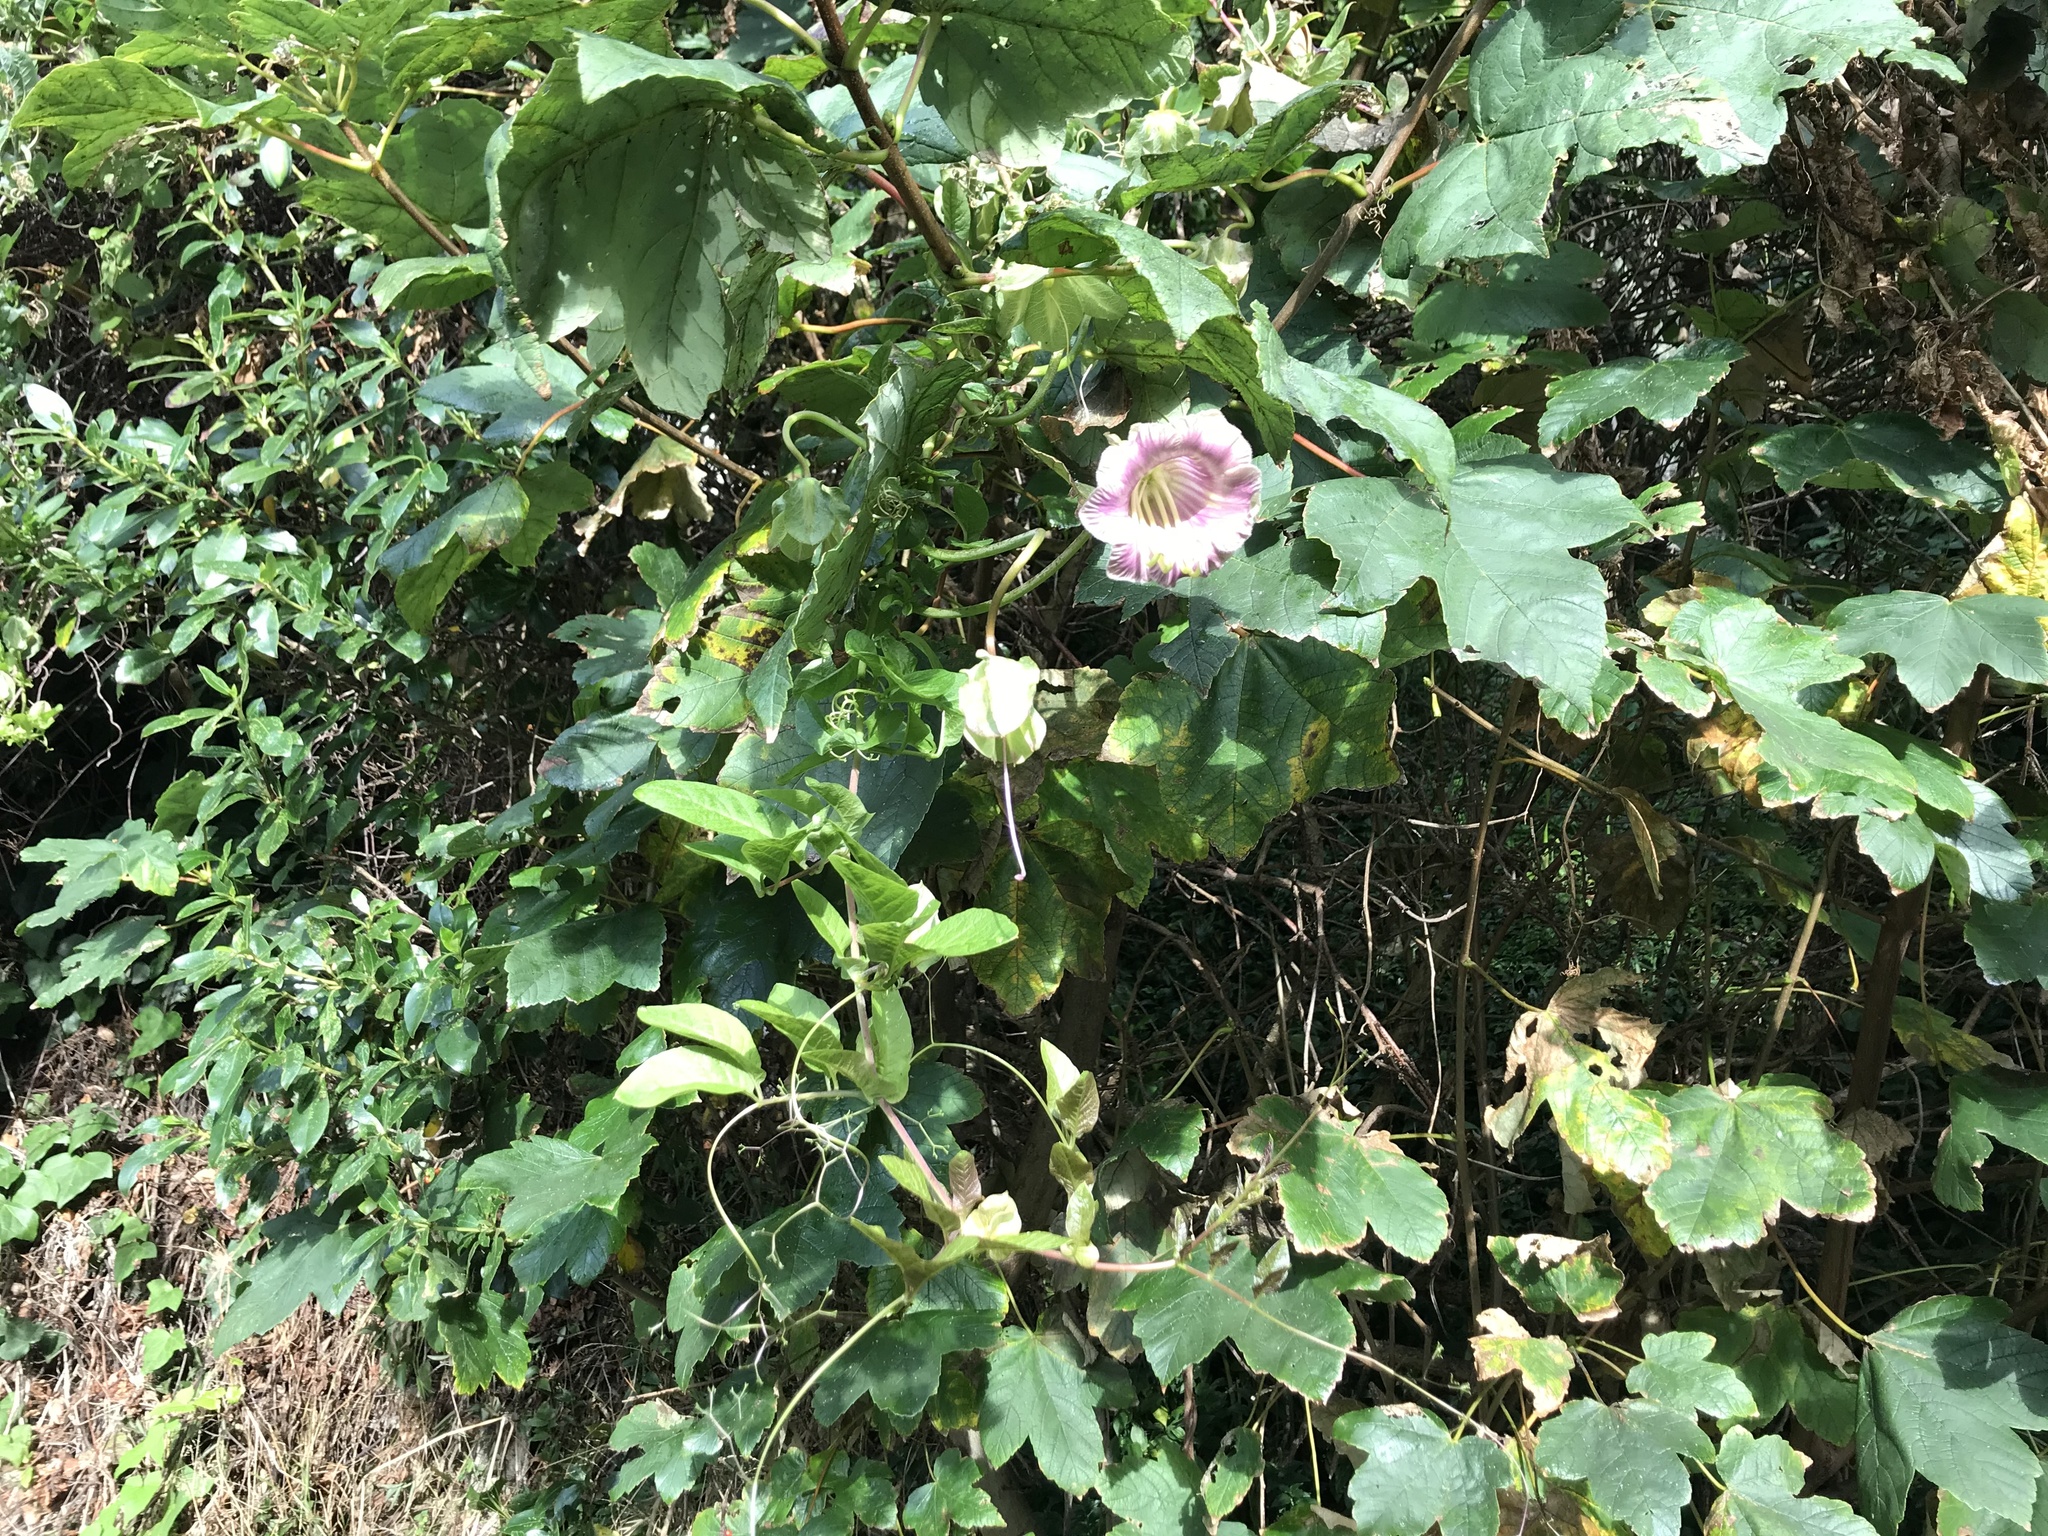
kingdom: Plantae
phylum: Tracheophyta
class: Magnoliopsida
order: Ericales
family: Polemoniaceae
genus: Cobaea
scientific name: Cobaea scandens
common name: Cup-and-saucer-vine
